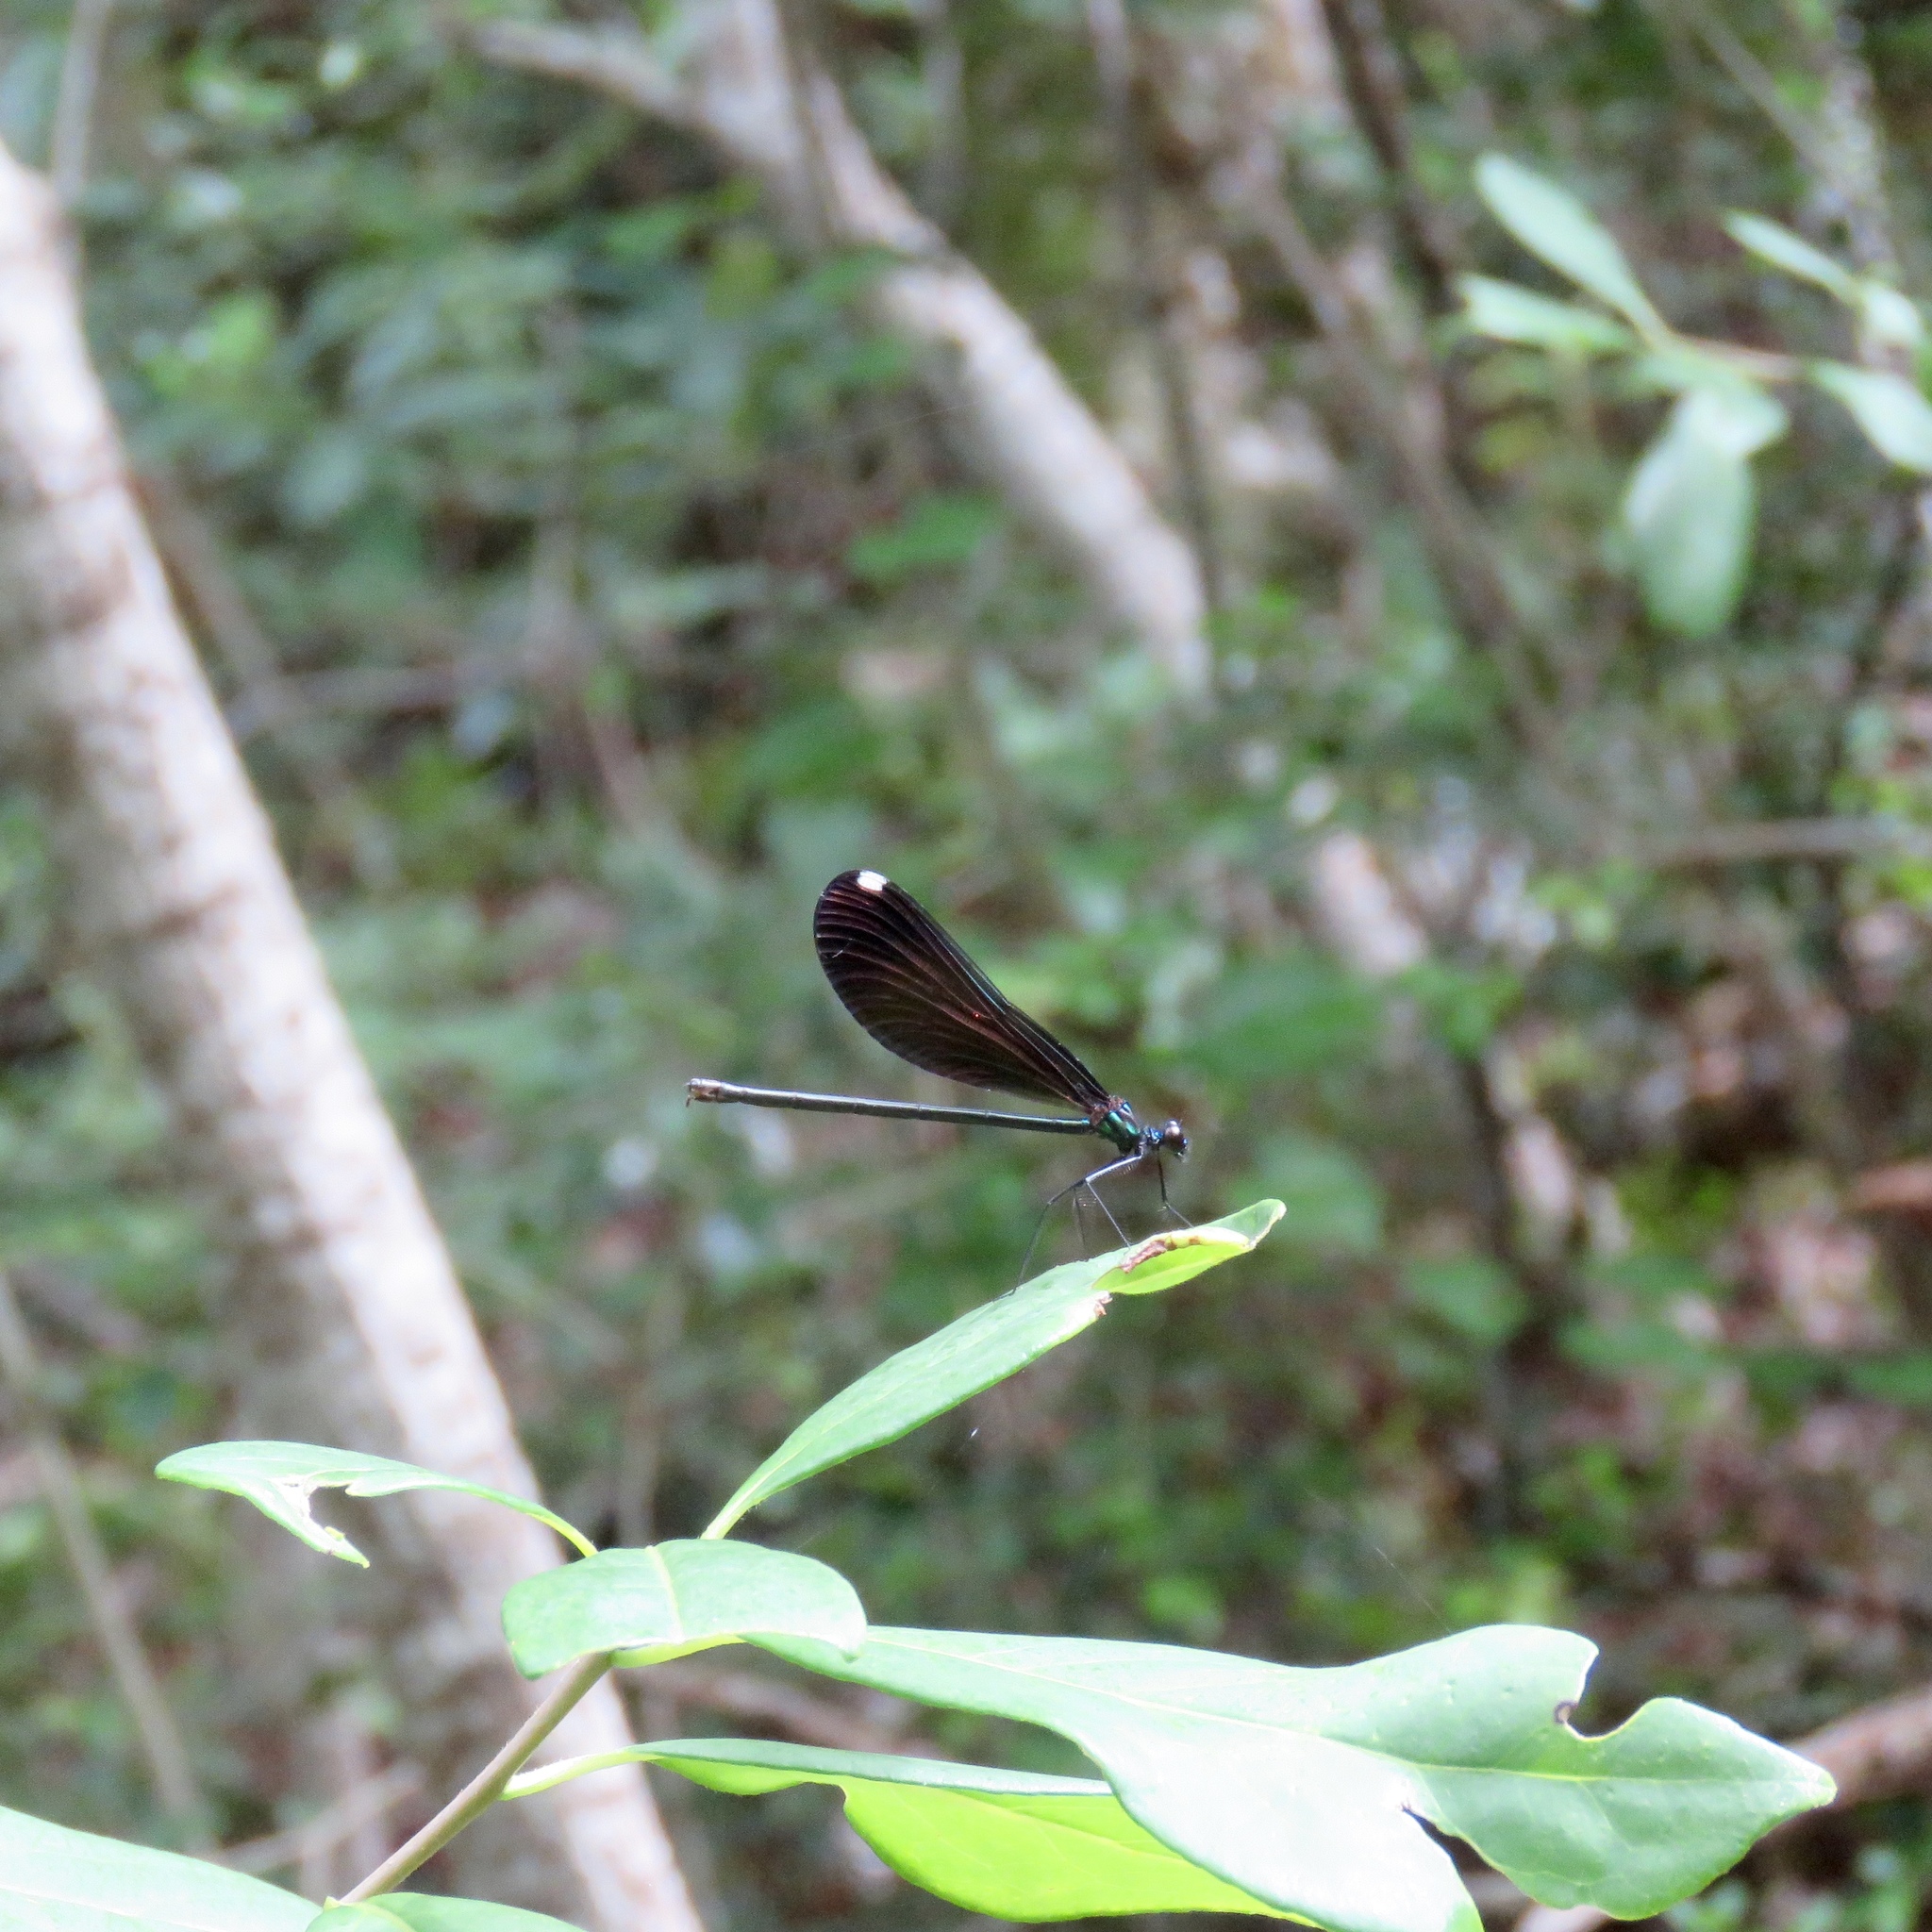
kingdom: Animalia
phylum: Arthropoda
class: Insecta
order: Odonata
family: Calopterygidae
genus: Calopteryx
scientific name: Calopteryx maculata
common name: Ebony jewelwing
